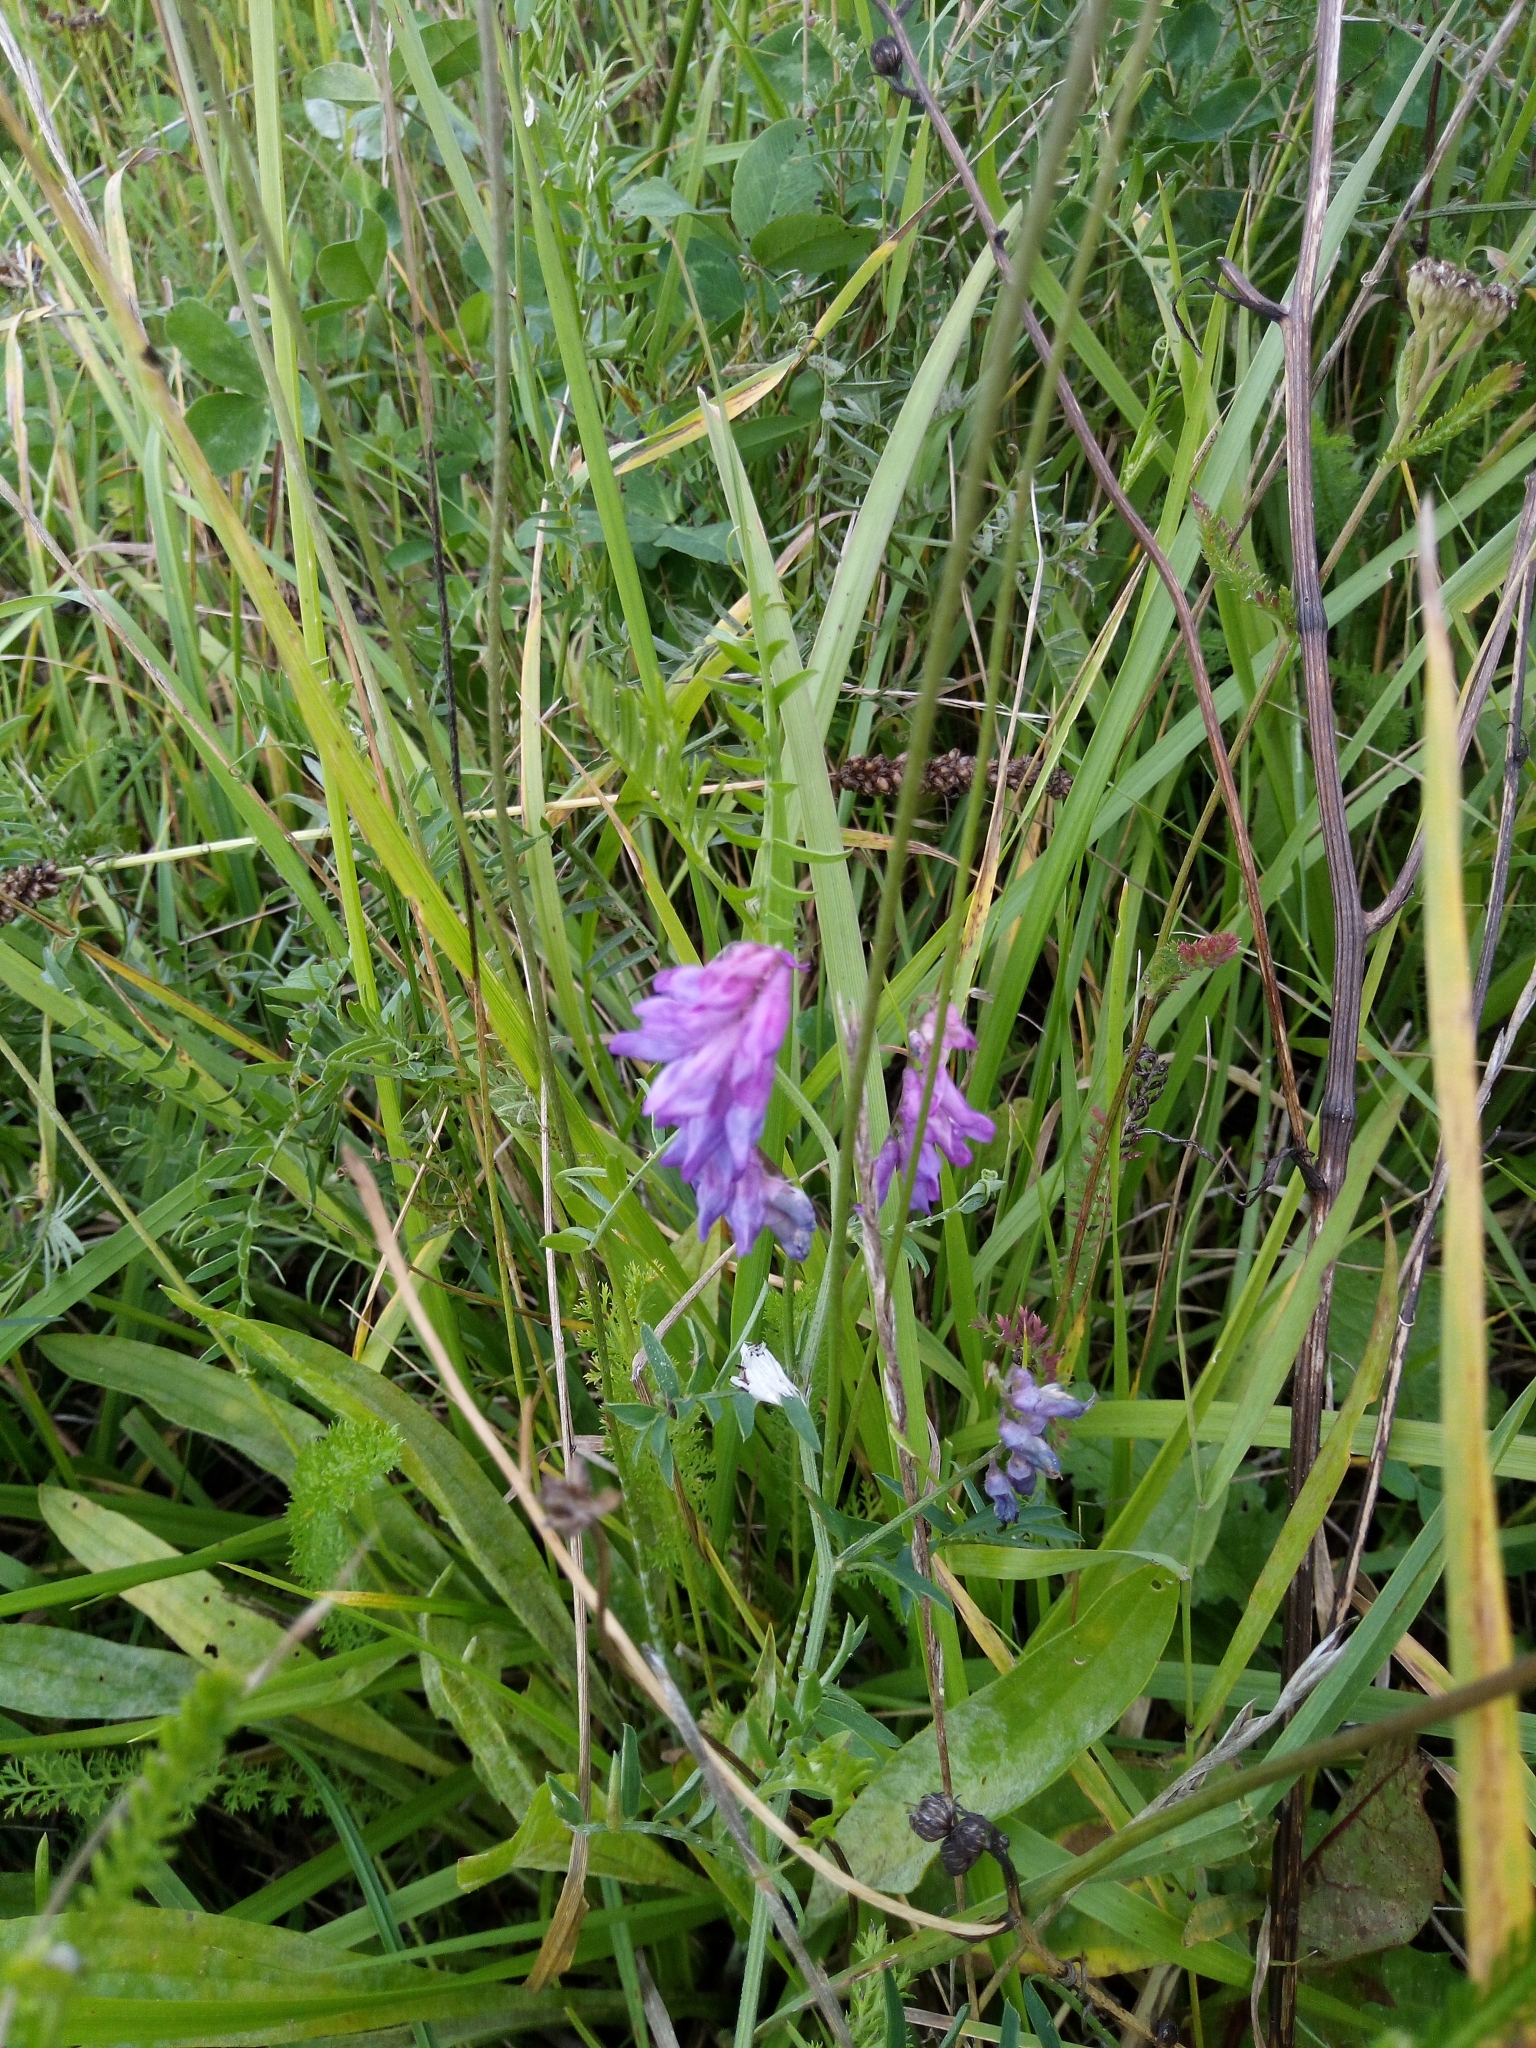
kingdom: Plantae
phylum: Tracheophyta
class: Magnoliopsida
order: Fabales
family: Fabaceae
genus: Vicia
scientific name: Vicia cracca
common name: Bird vetch
